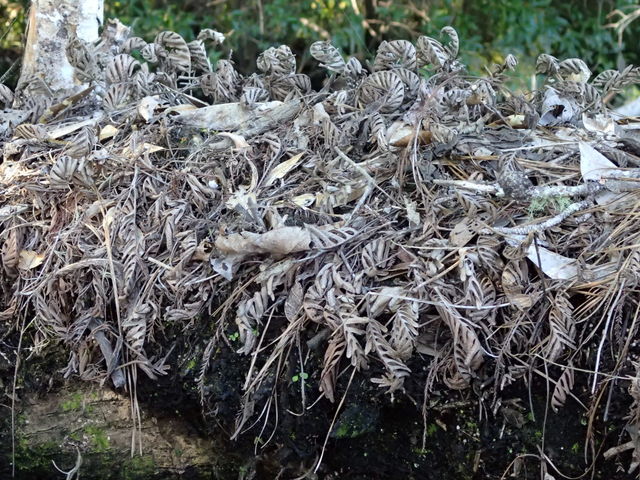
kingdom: Plantae
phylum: Tracheophyta
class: Polypodiopsida
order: Polypodiales
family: Polypodiaceae
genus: Pleopeltis
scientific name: Pleopeltis michauxiana
